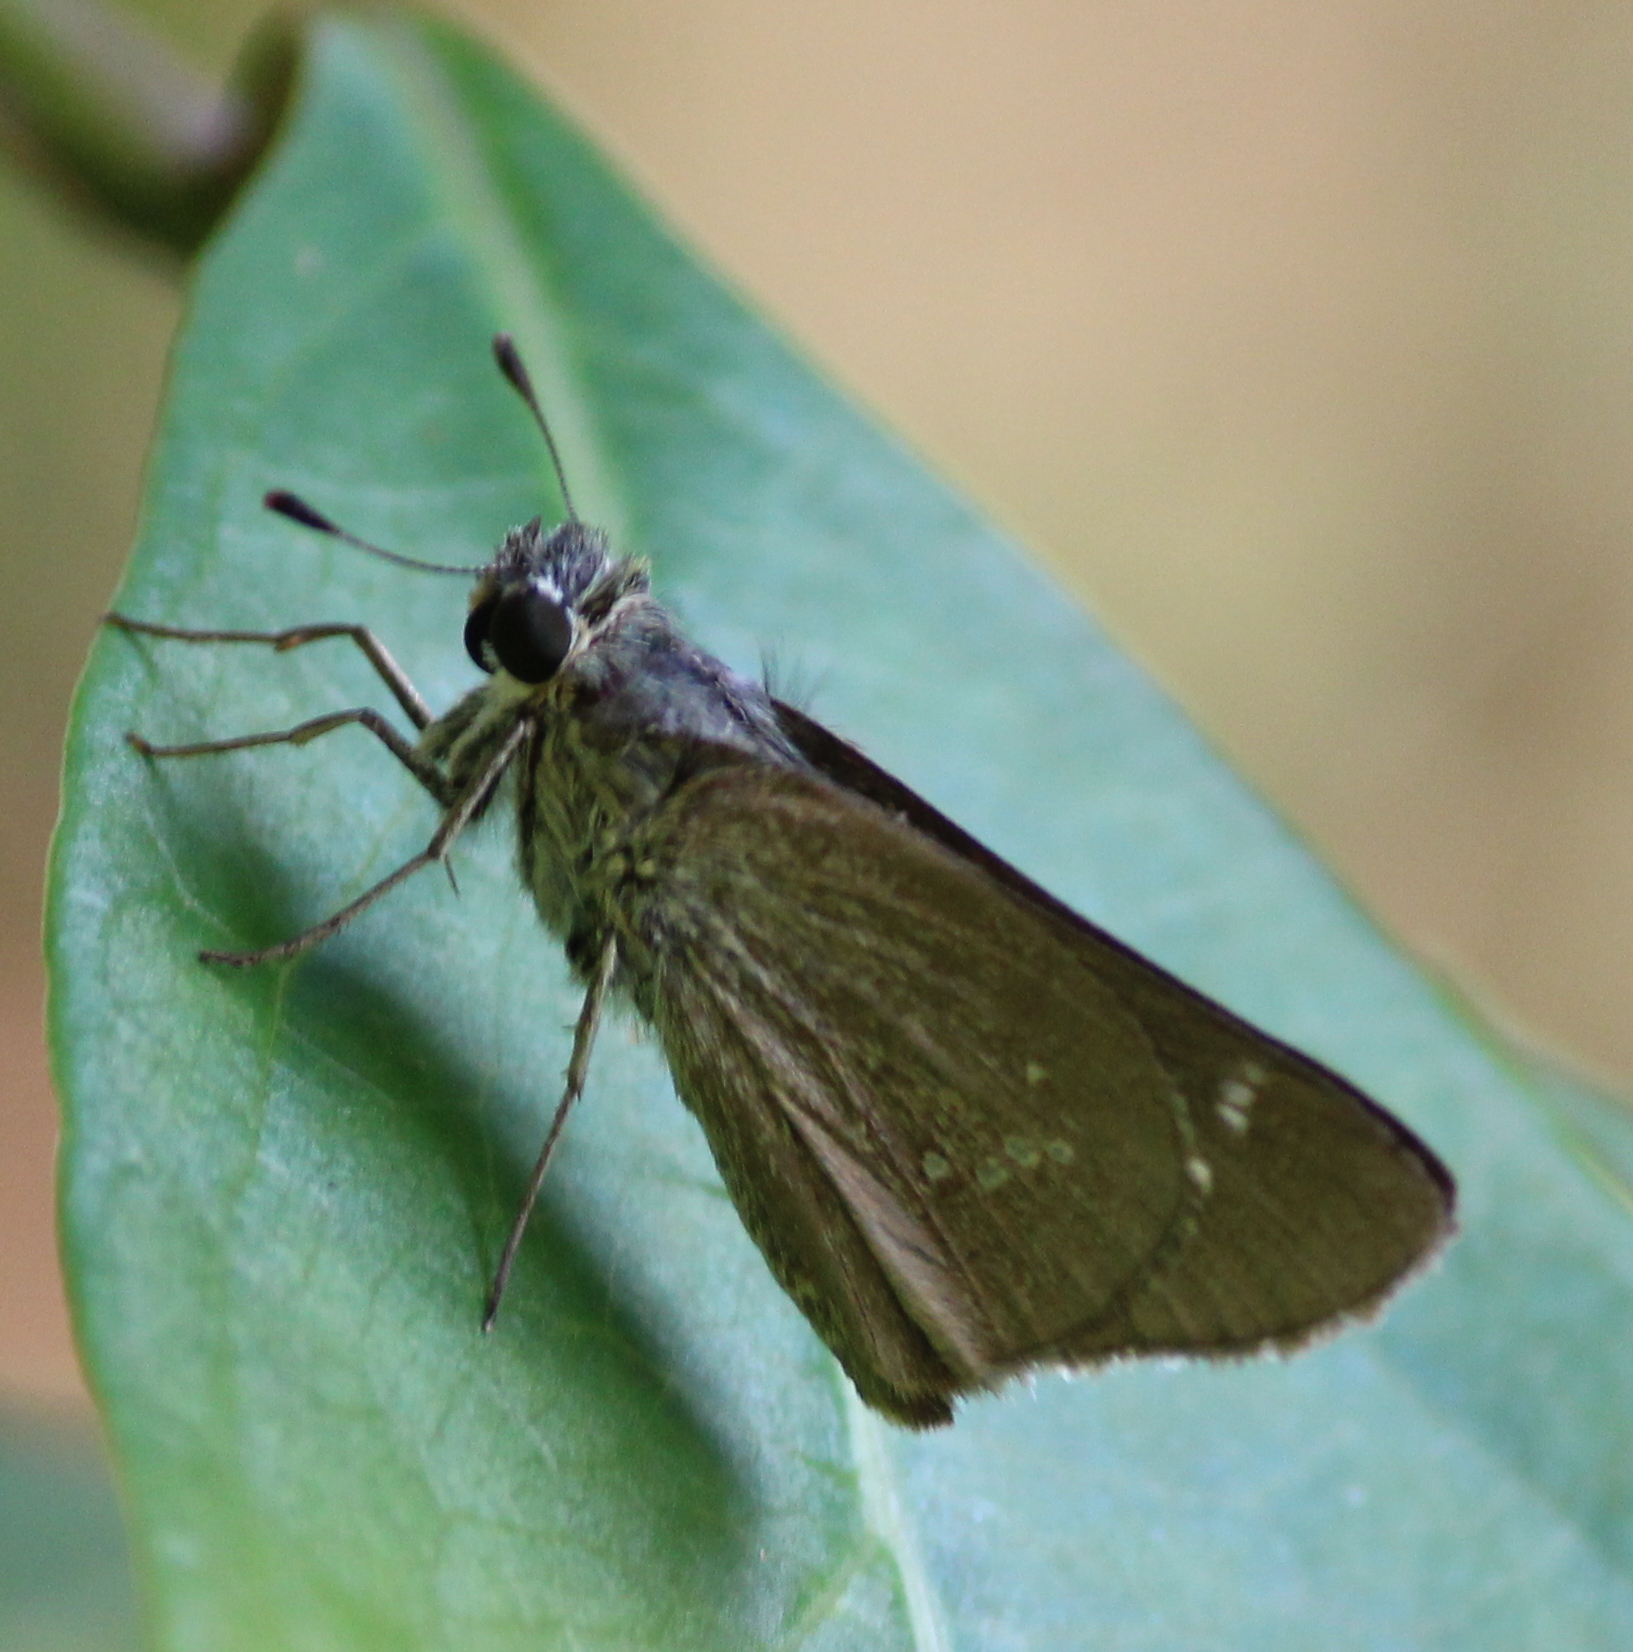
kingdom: Animalia
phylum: Arthropoda
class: Insecta
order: Lepidoptera
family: Hesperiidae
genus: Parnara
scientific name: Parnara naso
